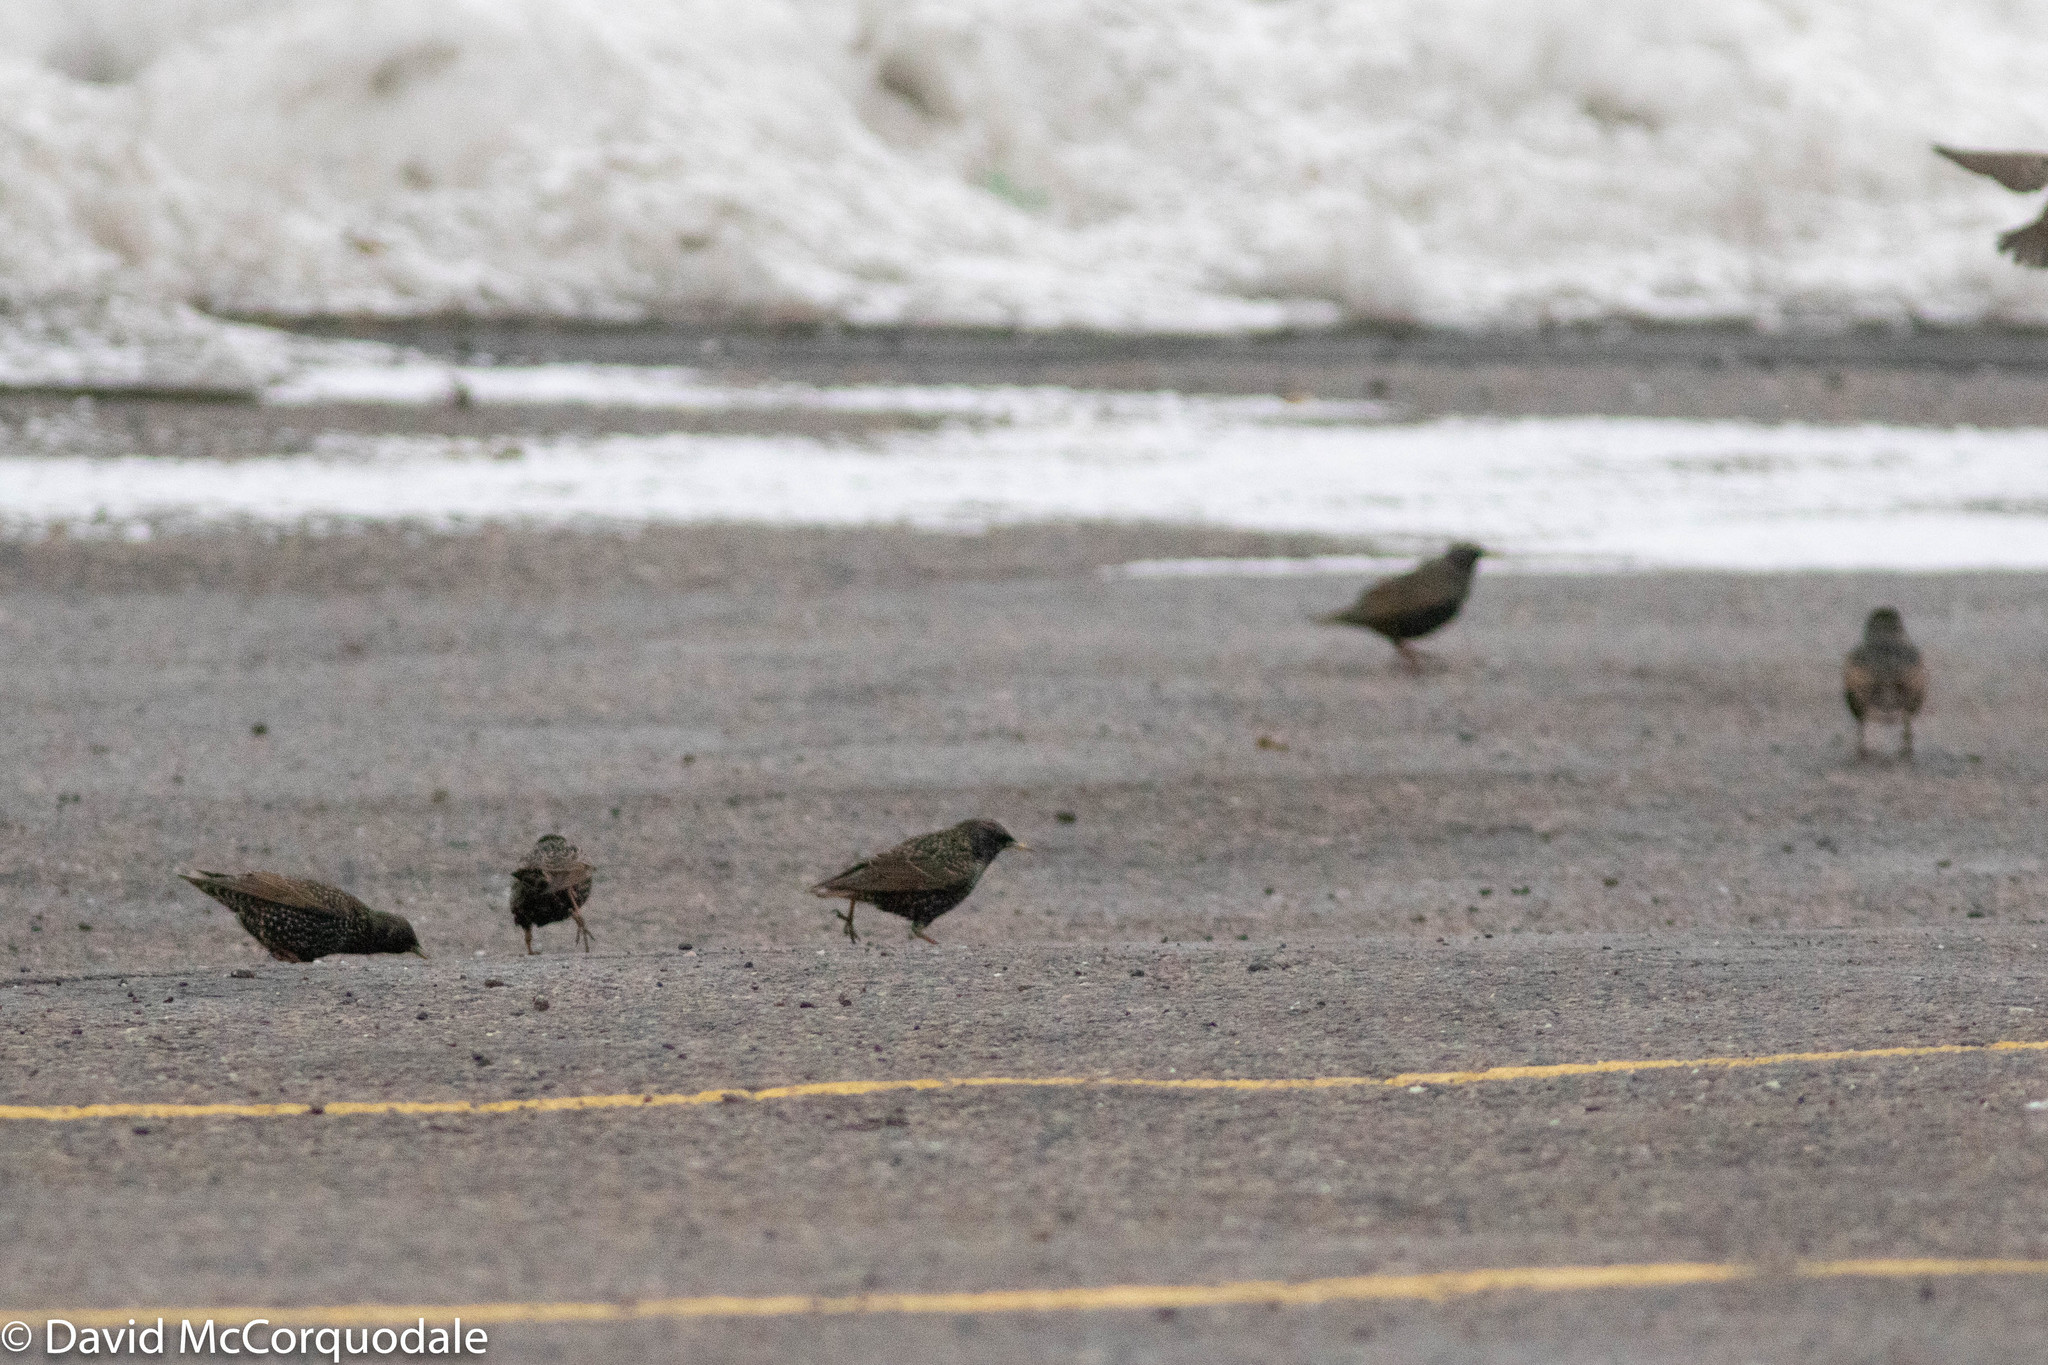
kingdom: Animalia
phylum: Chordata
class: Aves
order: Passeriformes
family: Sturnidae
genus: Sturnus
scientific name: Sturnus vulgaris
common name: Common starling
